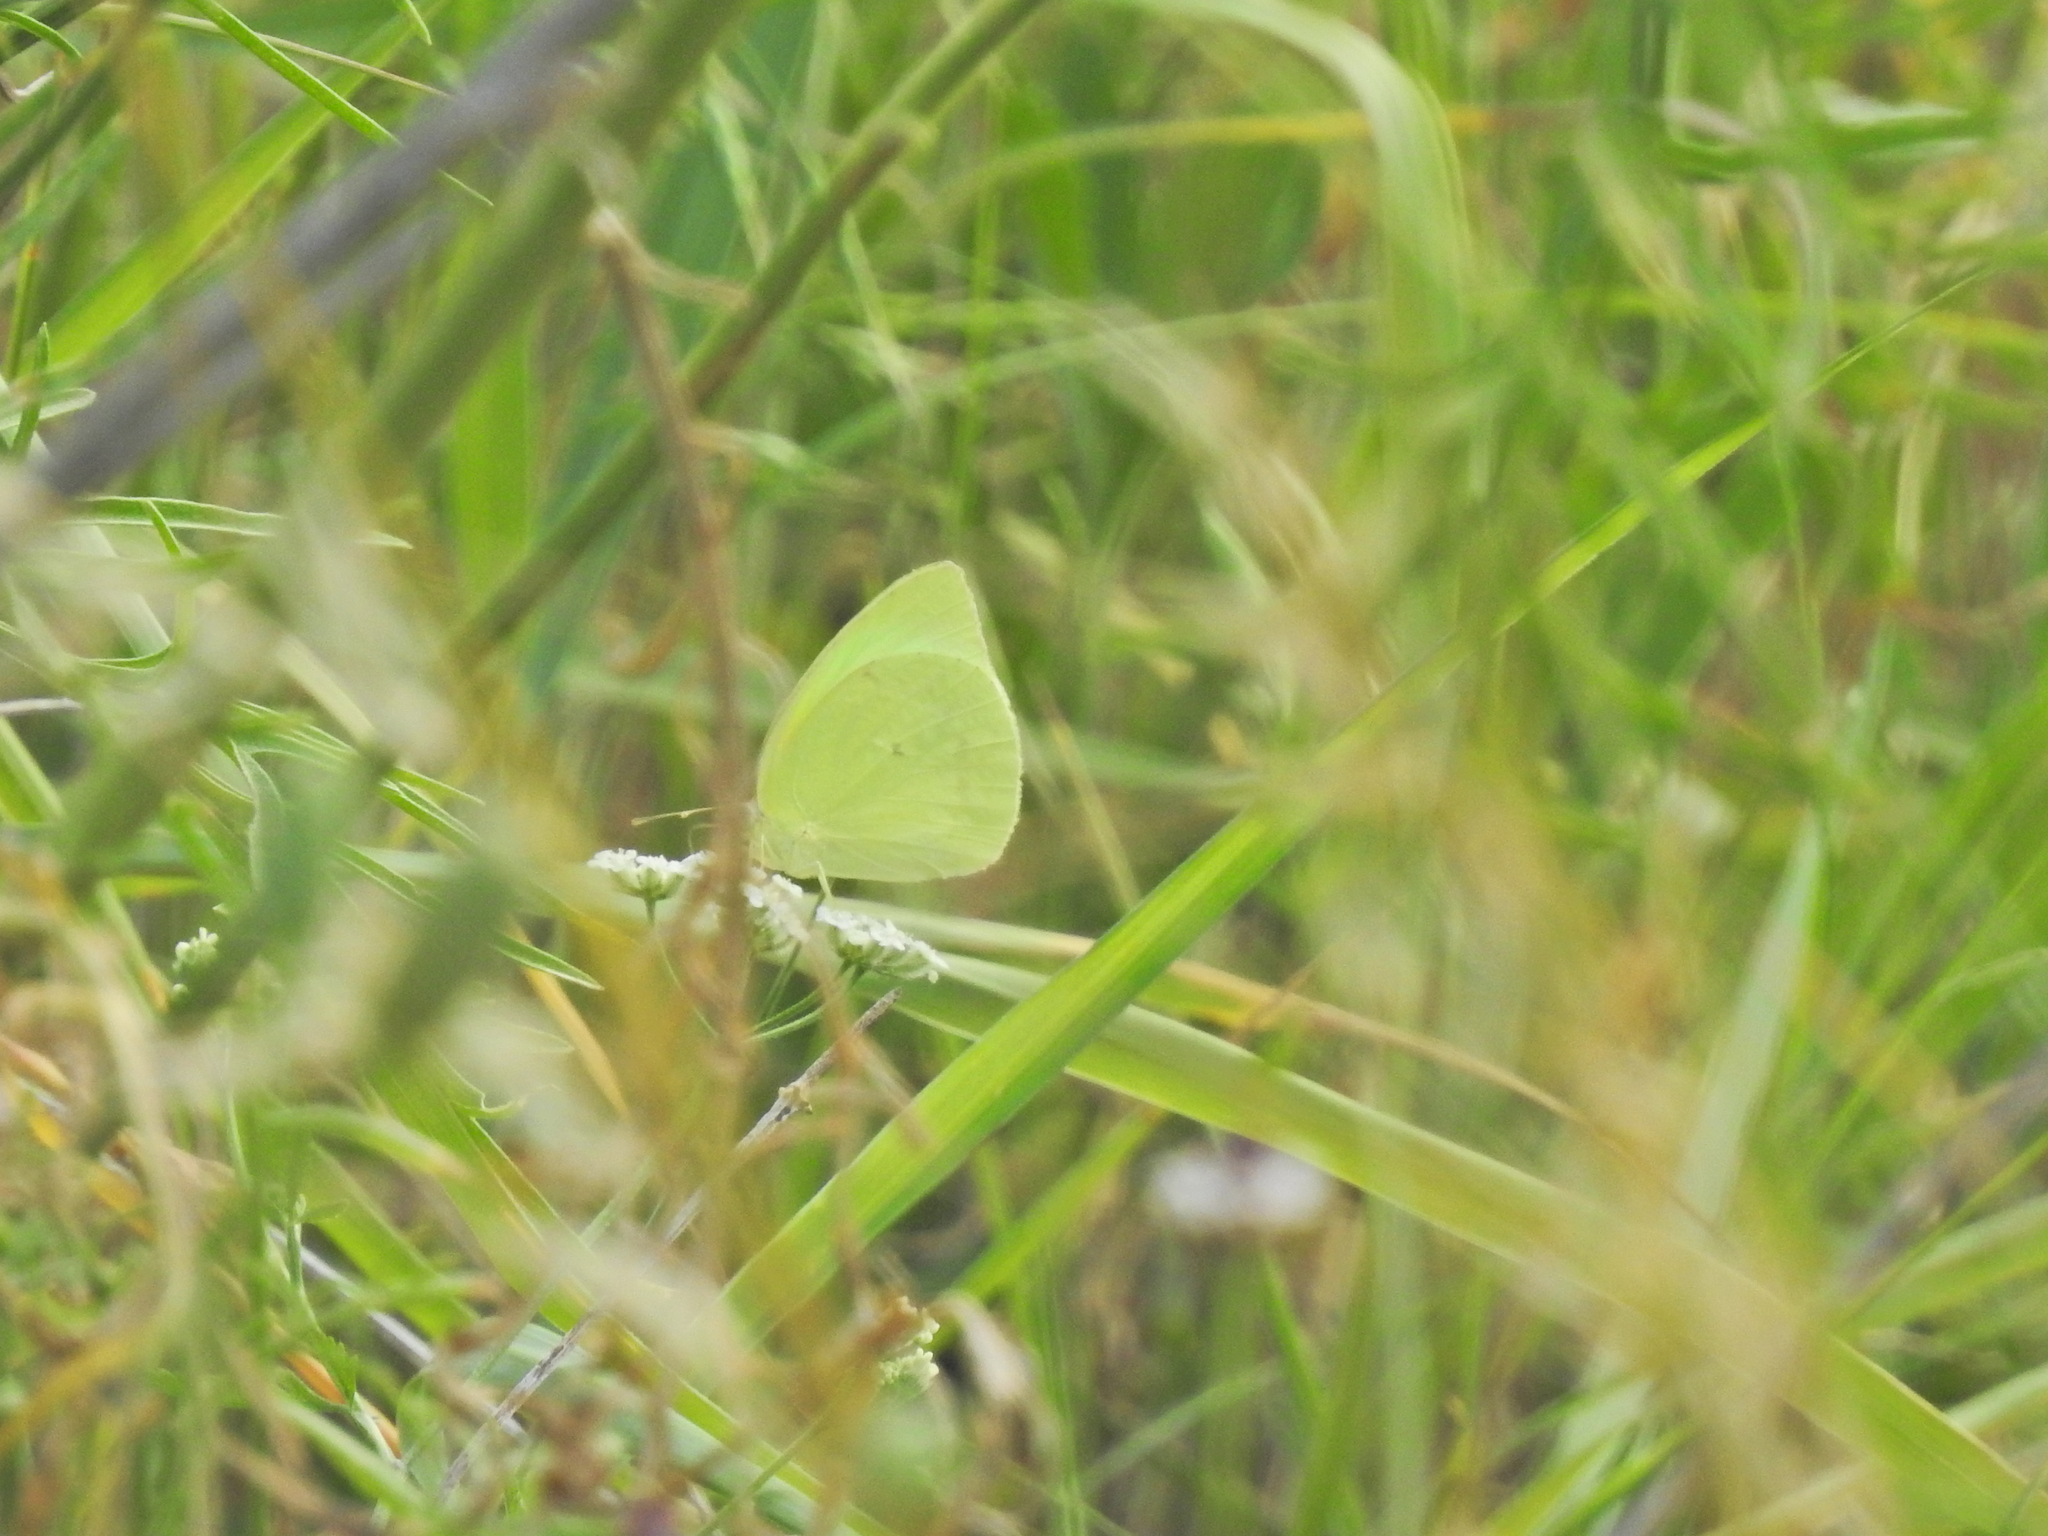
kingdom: Animalia
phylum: Arthropoda
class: Insecta
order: Lepidoptera
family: Pieridae
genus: Kricogonia
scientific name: Kricogonia lyside
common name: Guayacan sulphur,
